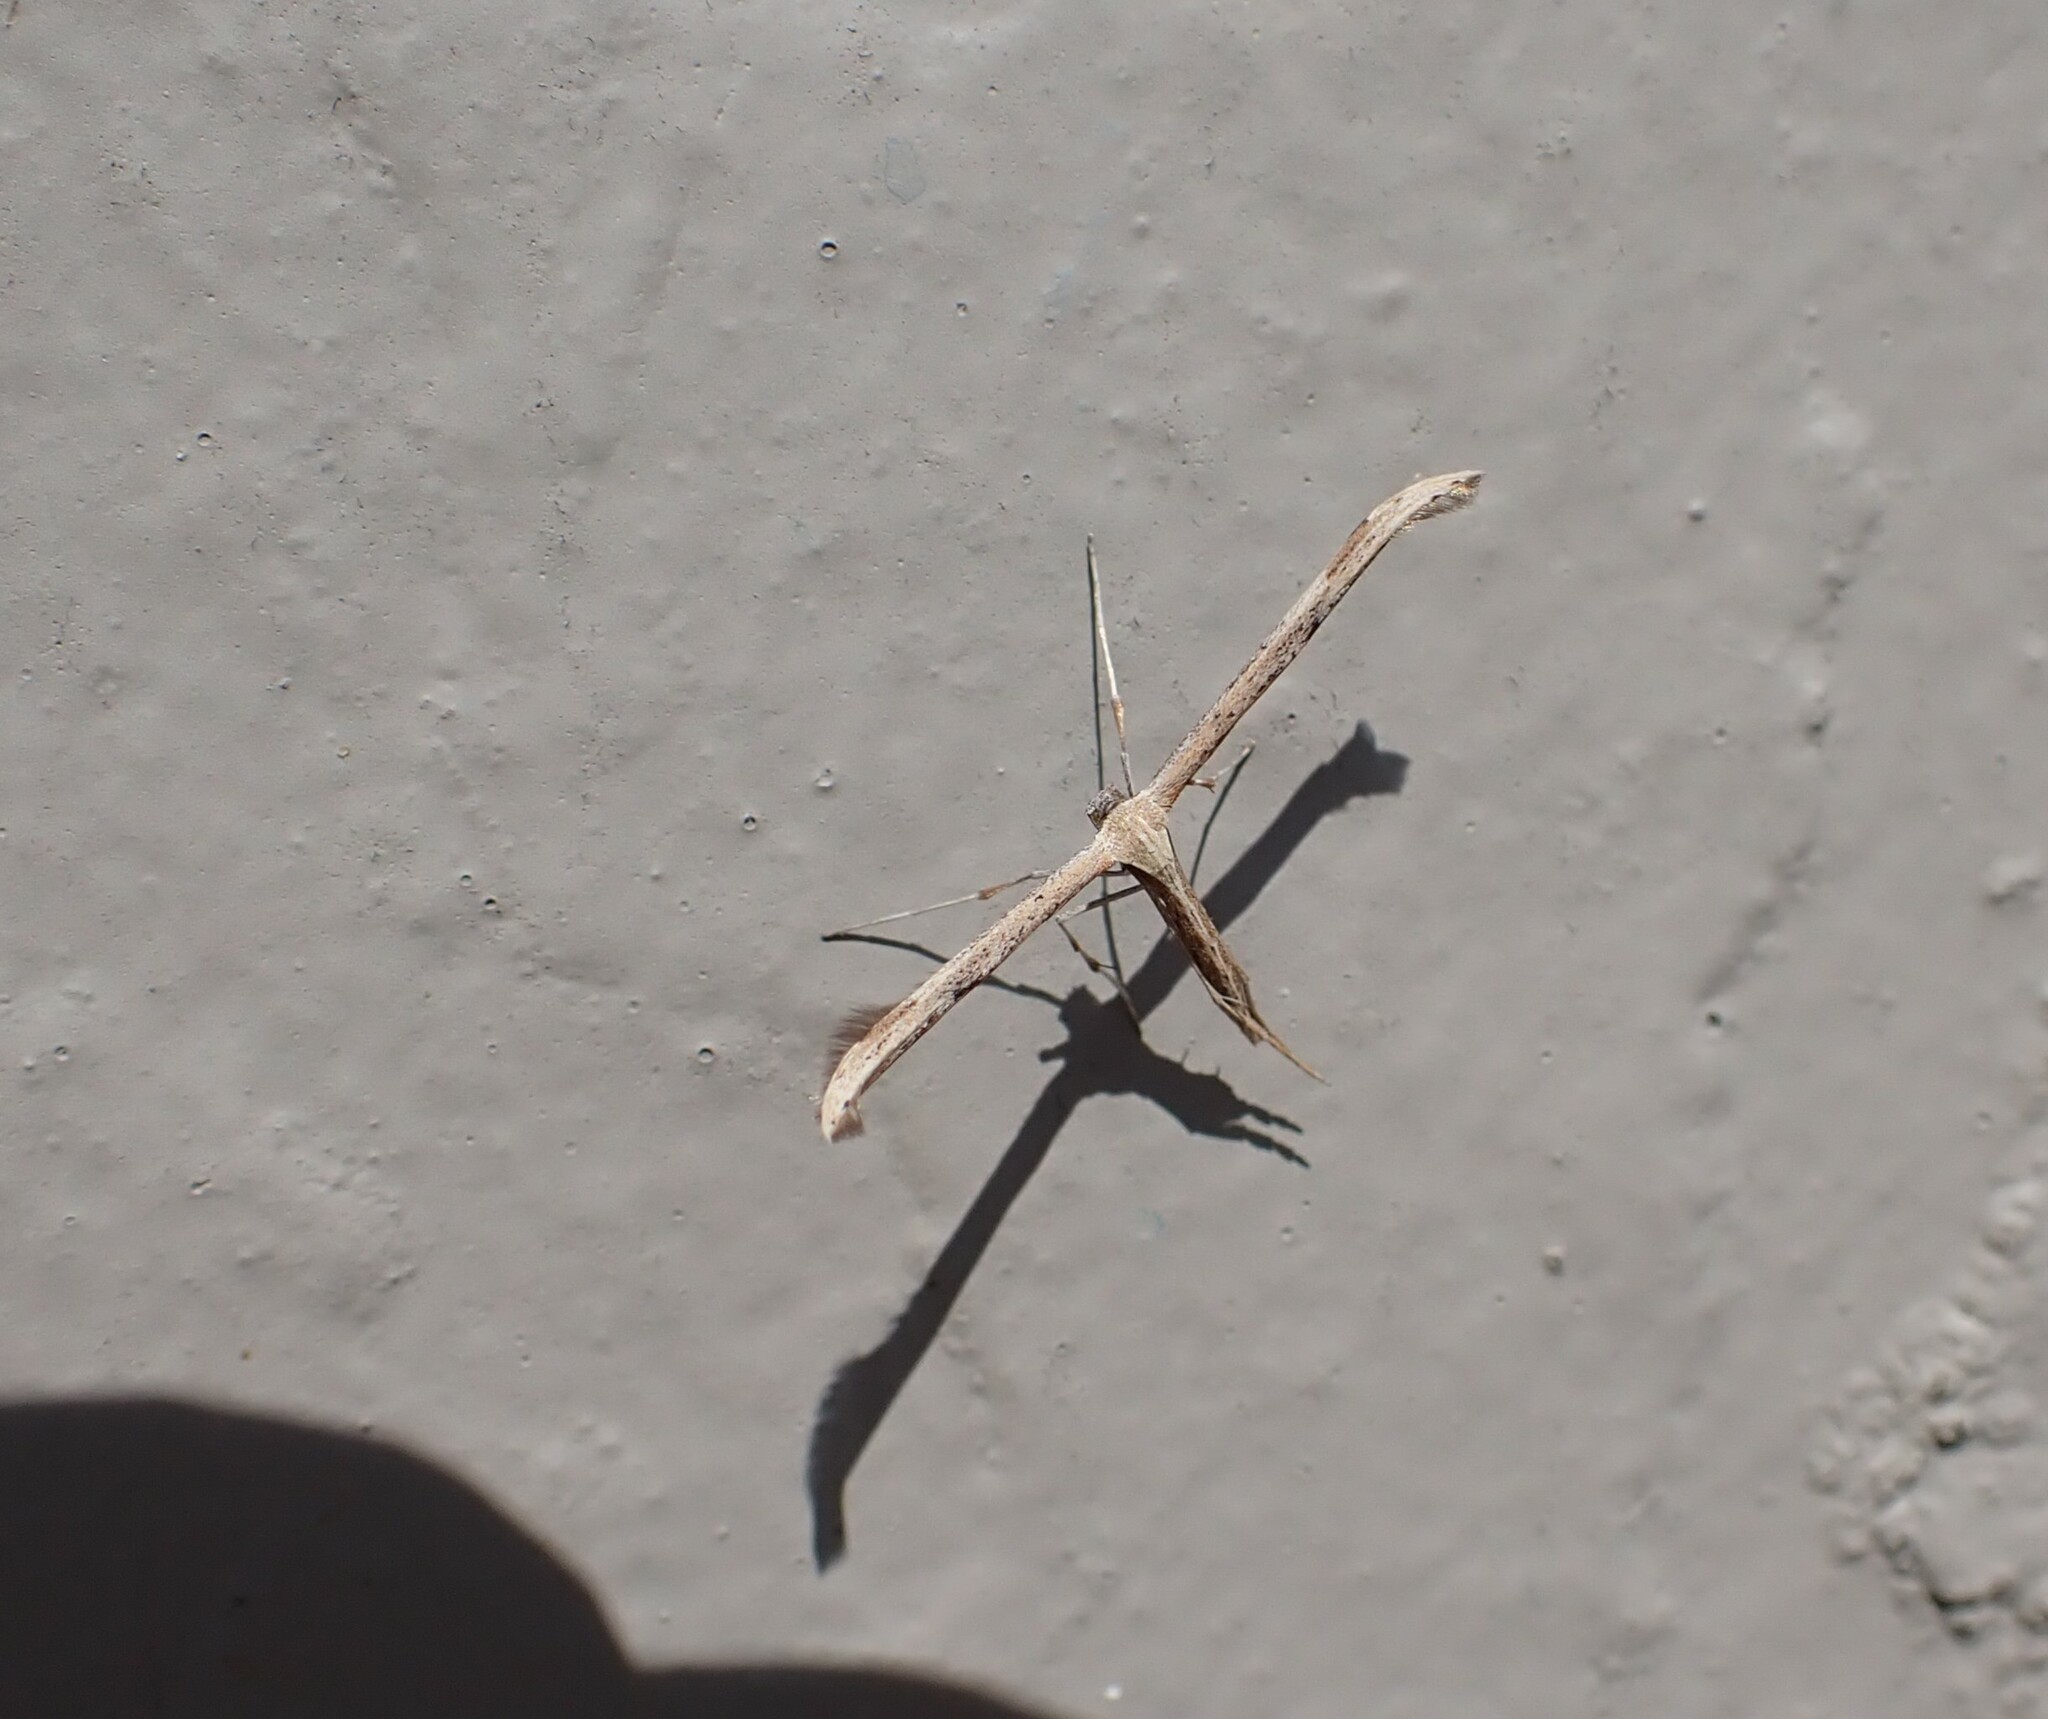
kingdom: Animalia
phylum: Arthropoda
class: Insecta
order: Lepidoptera
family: Pterophoridae
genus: Emmelina
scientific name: Emmelina monodactyla
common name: Common plume
